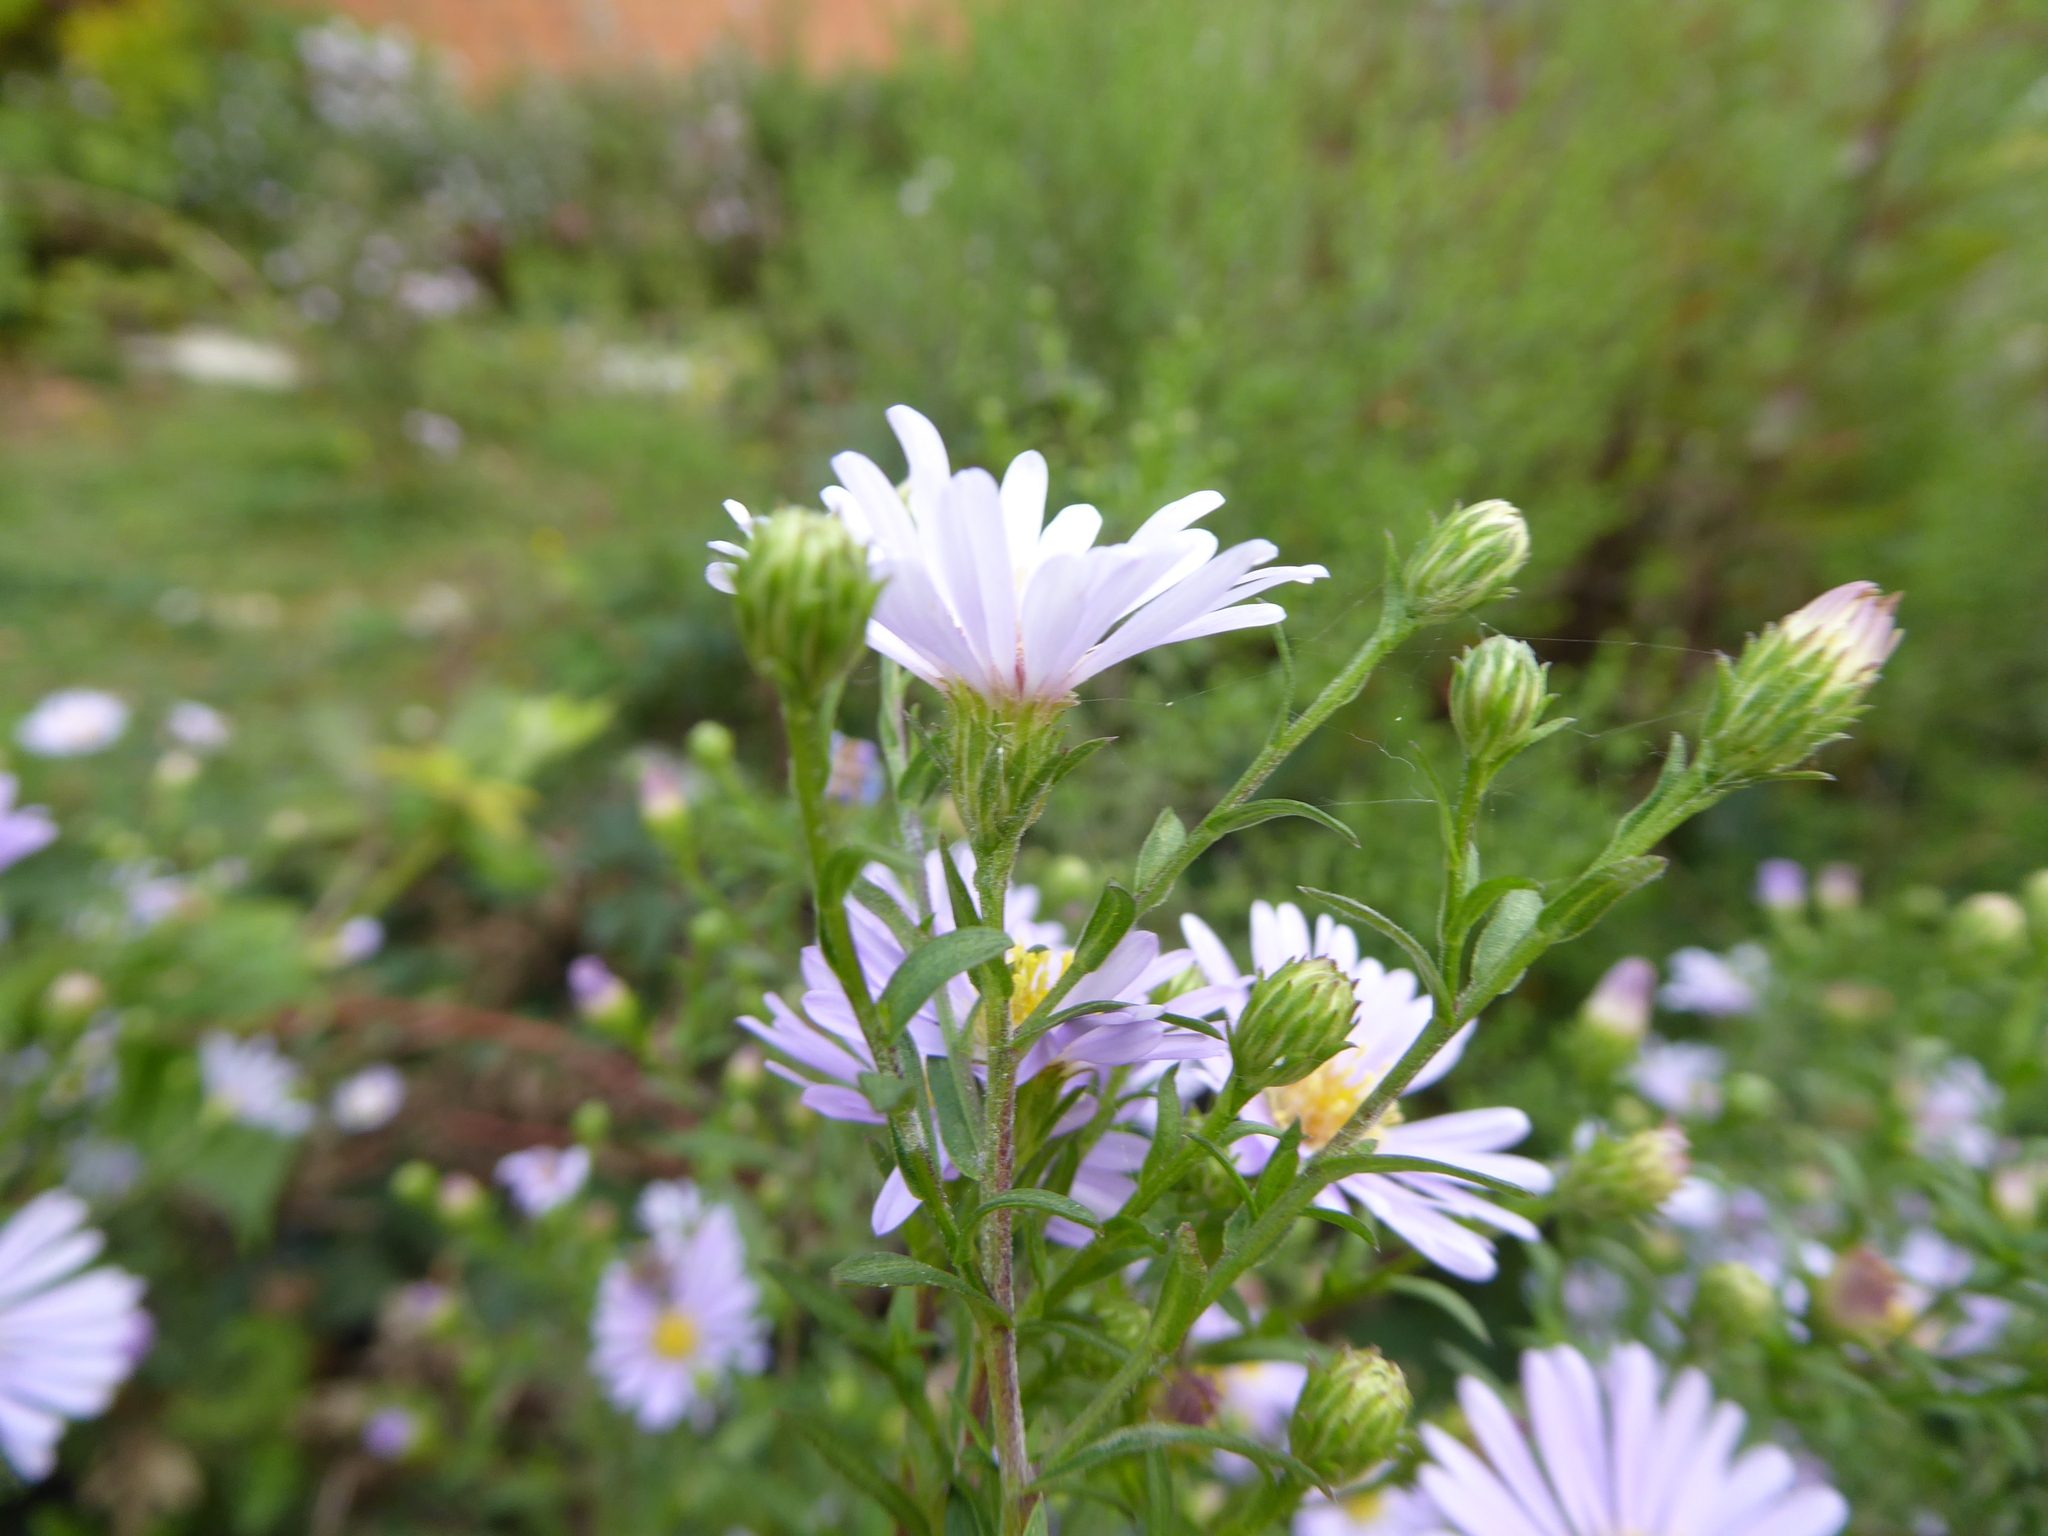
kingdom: Plantae
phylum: Tracheophyta
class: Magnoliopsida
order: Asterales
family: Asteraceae
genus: Symphyotrichum
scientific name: Symphyotrichum
